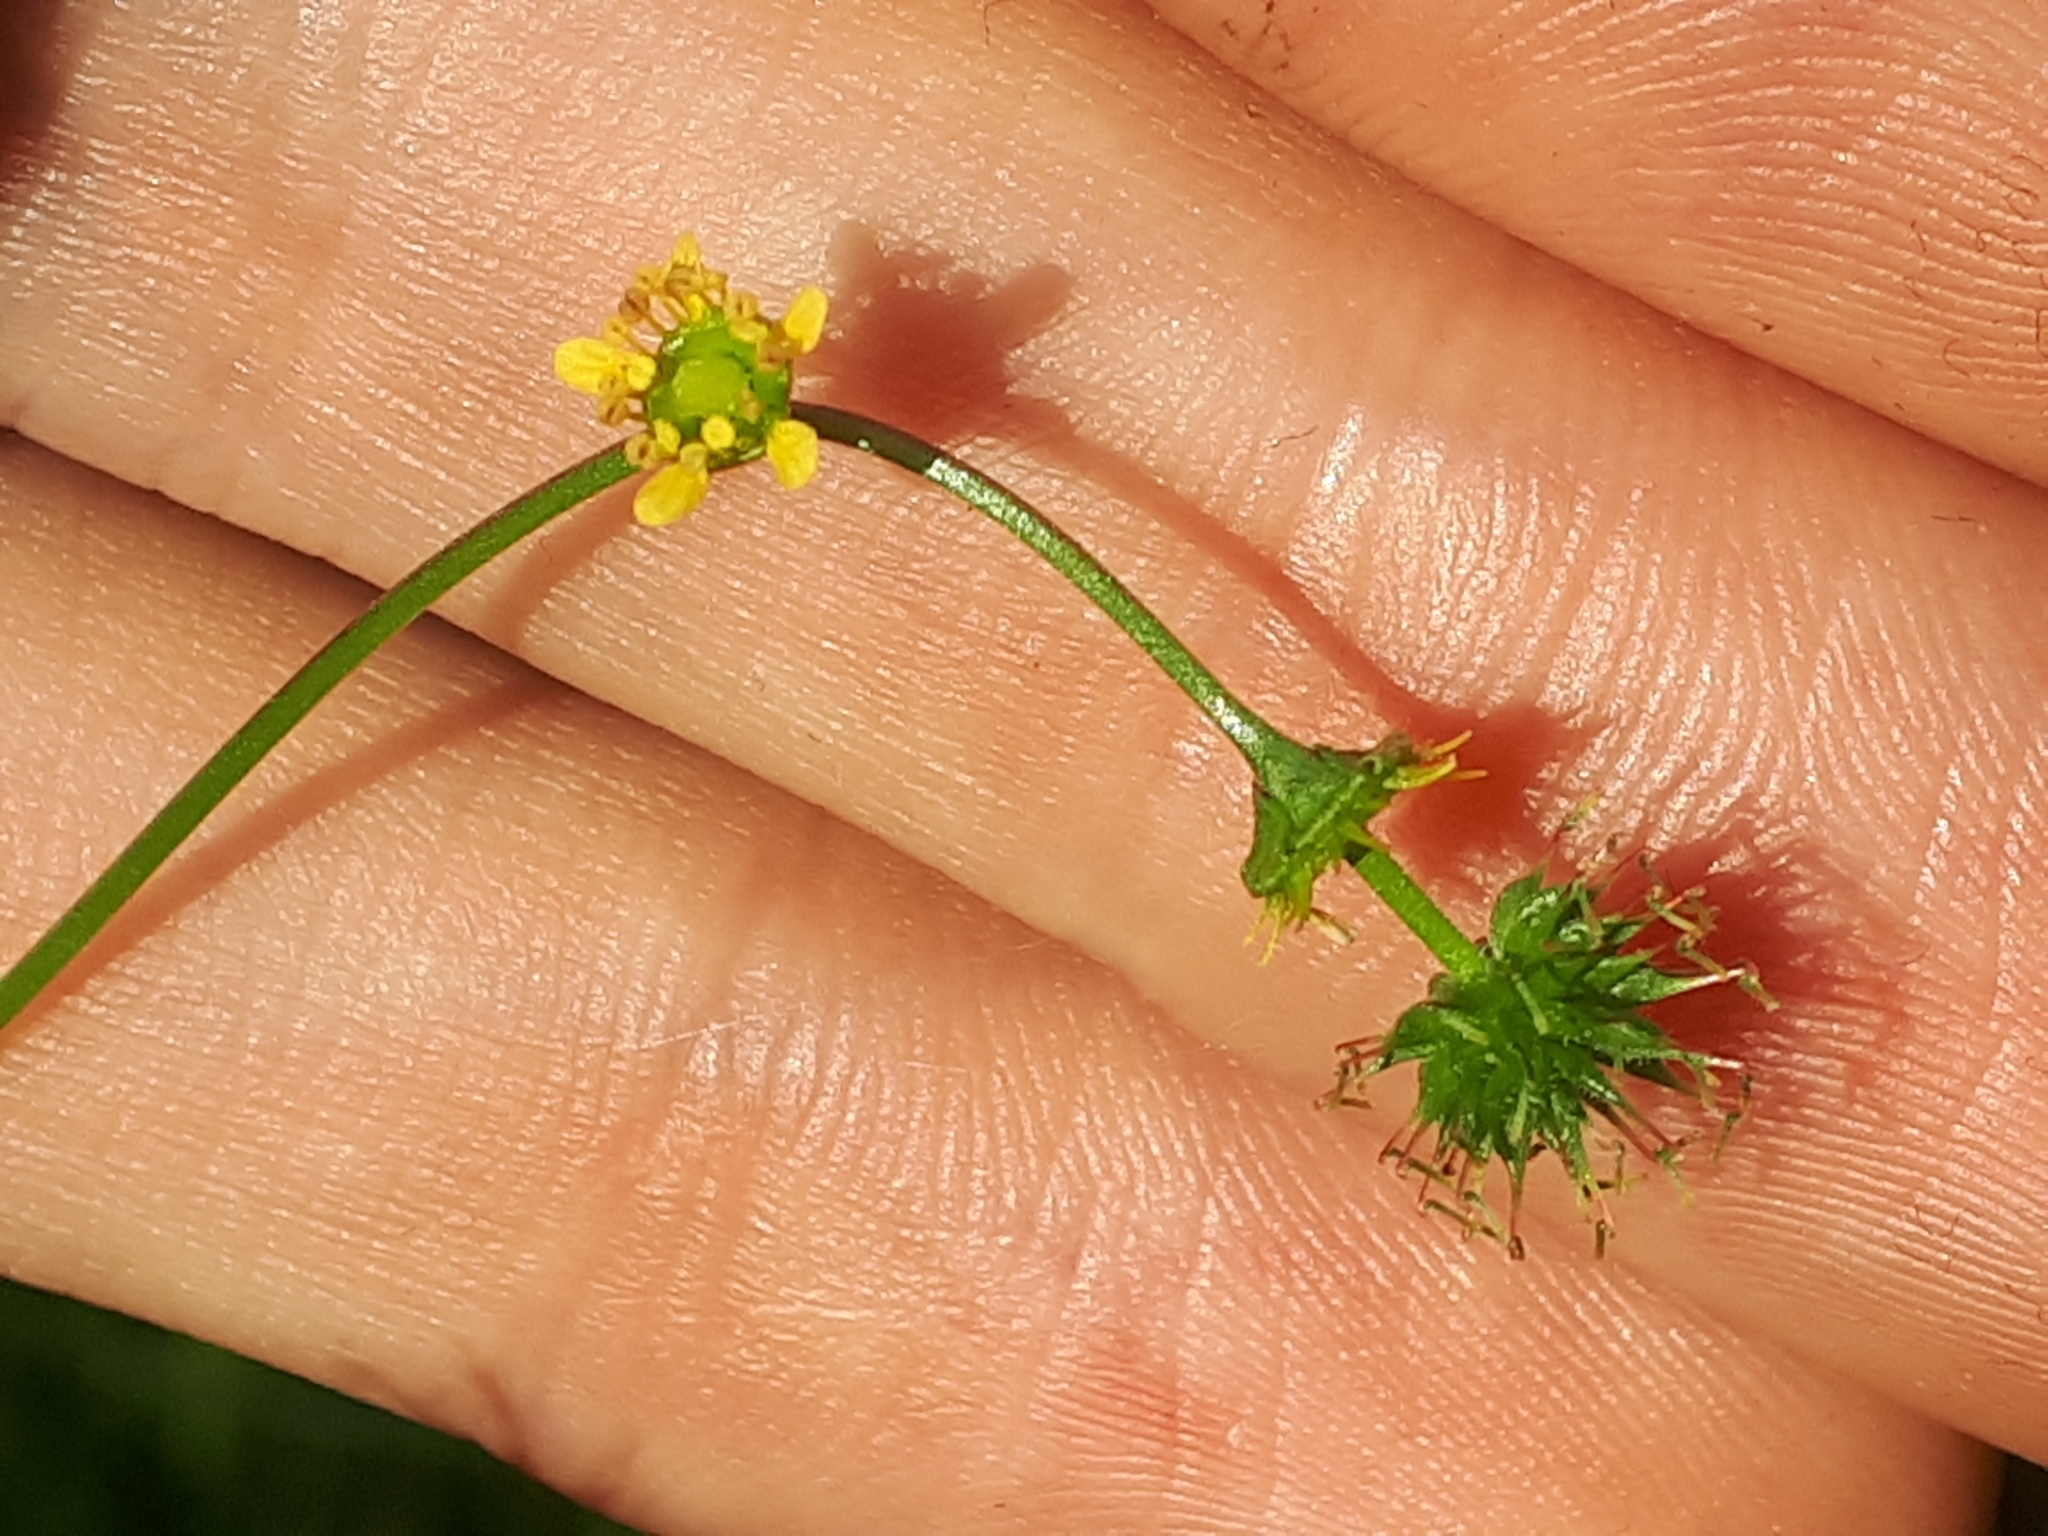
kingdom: Plantae
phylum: Tracheophyta
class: Magnoliopsida
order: Rosales
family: Rosaceae
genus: Geum
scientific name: Geum vernum
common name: Spring avens
